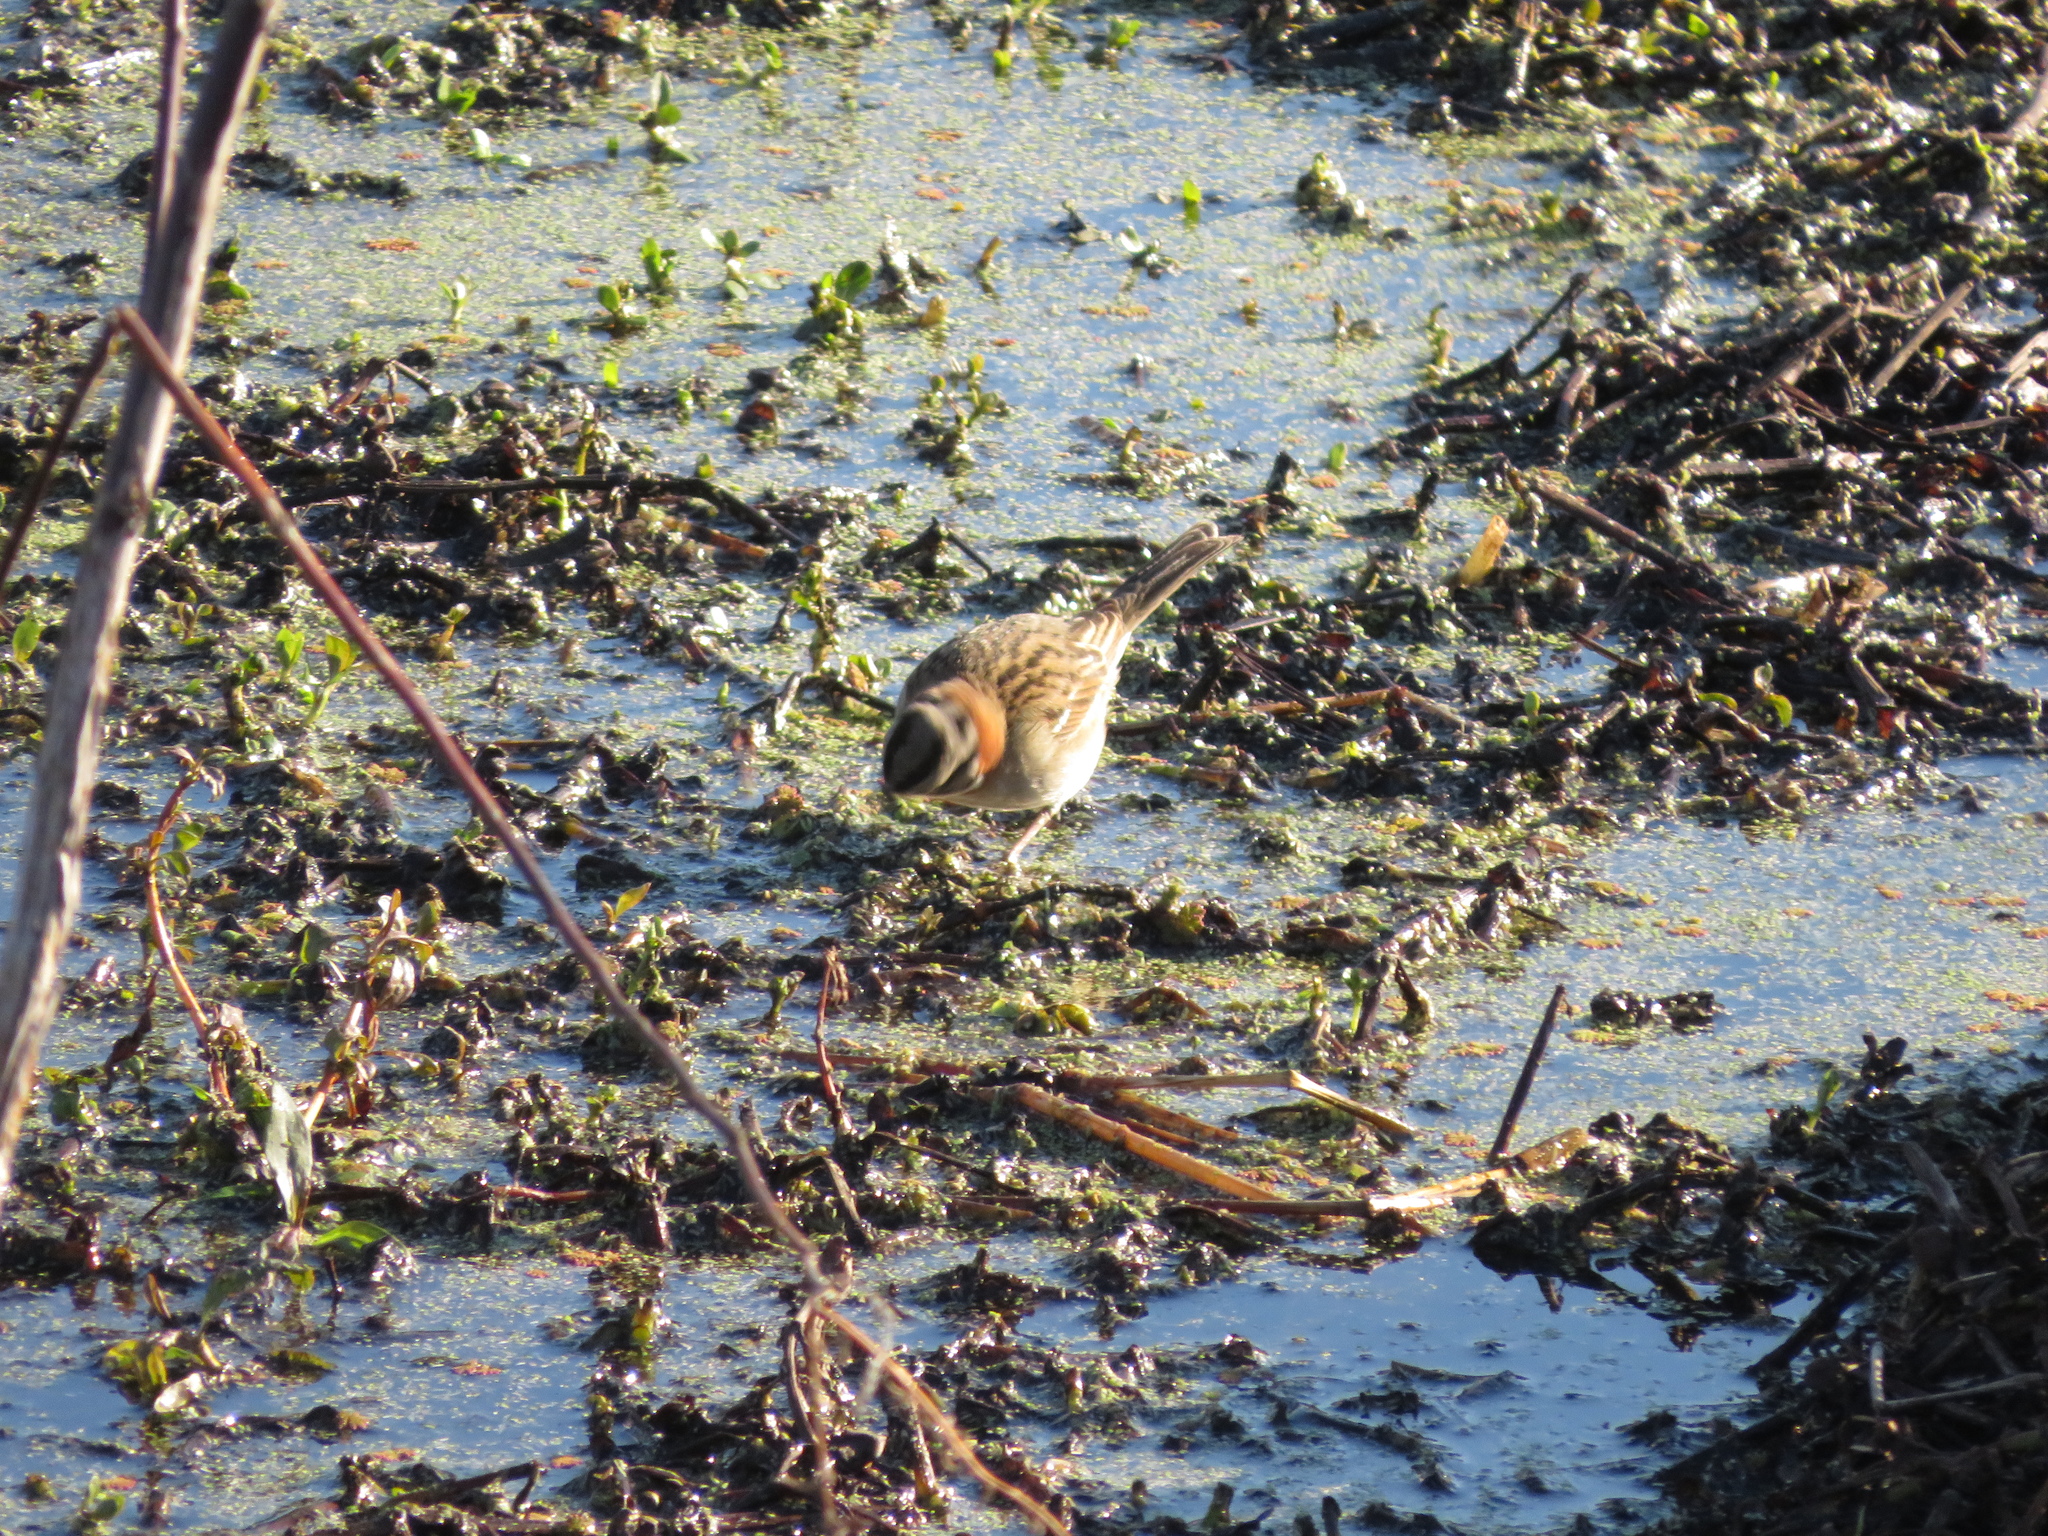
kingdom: Animalia
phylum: Chordata
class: Aves
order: Passeriformes
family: Passerellidae
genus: Zonotrichia
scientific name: Zonotrichia capensis
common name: Rufous-collared sparrow
